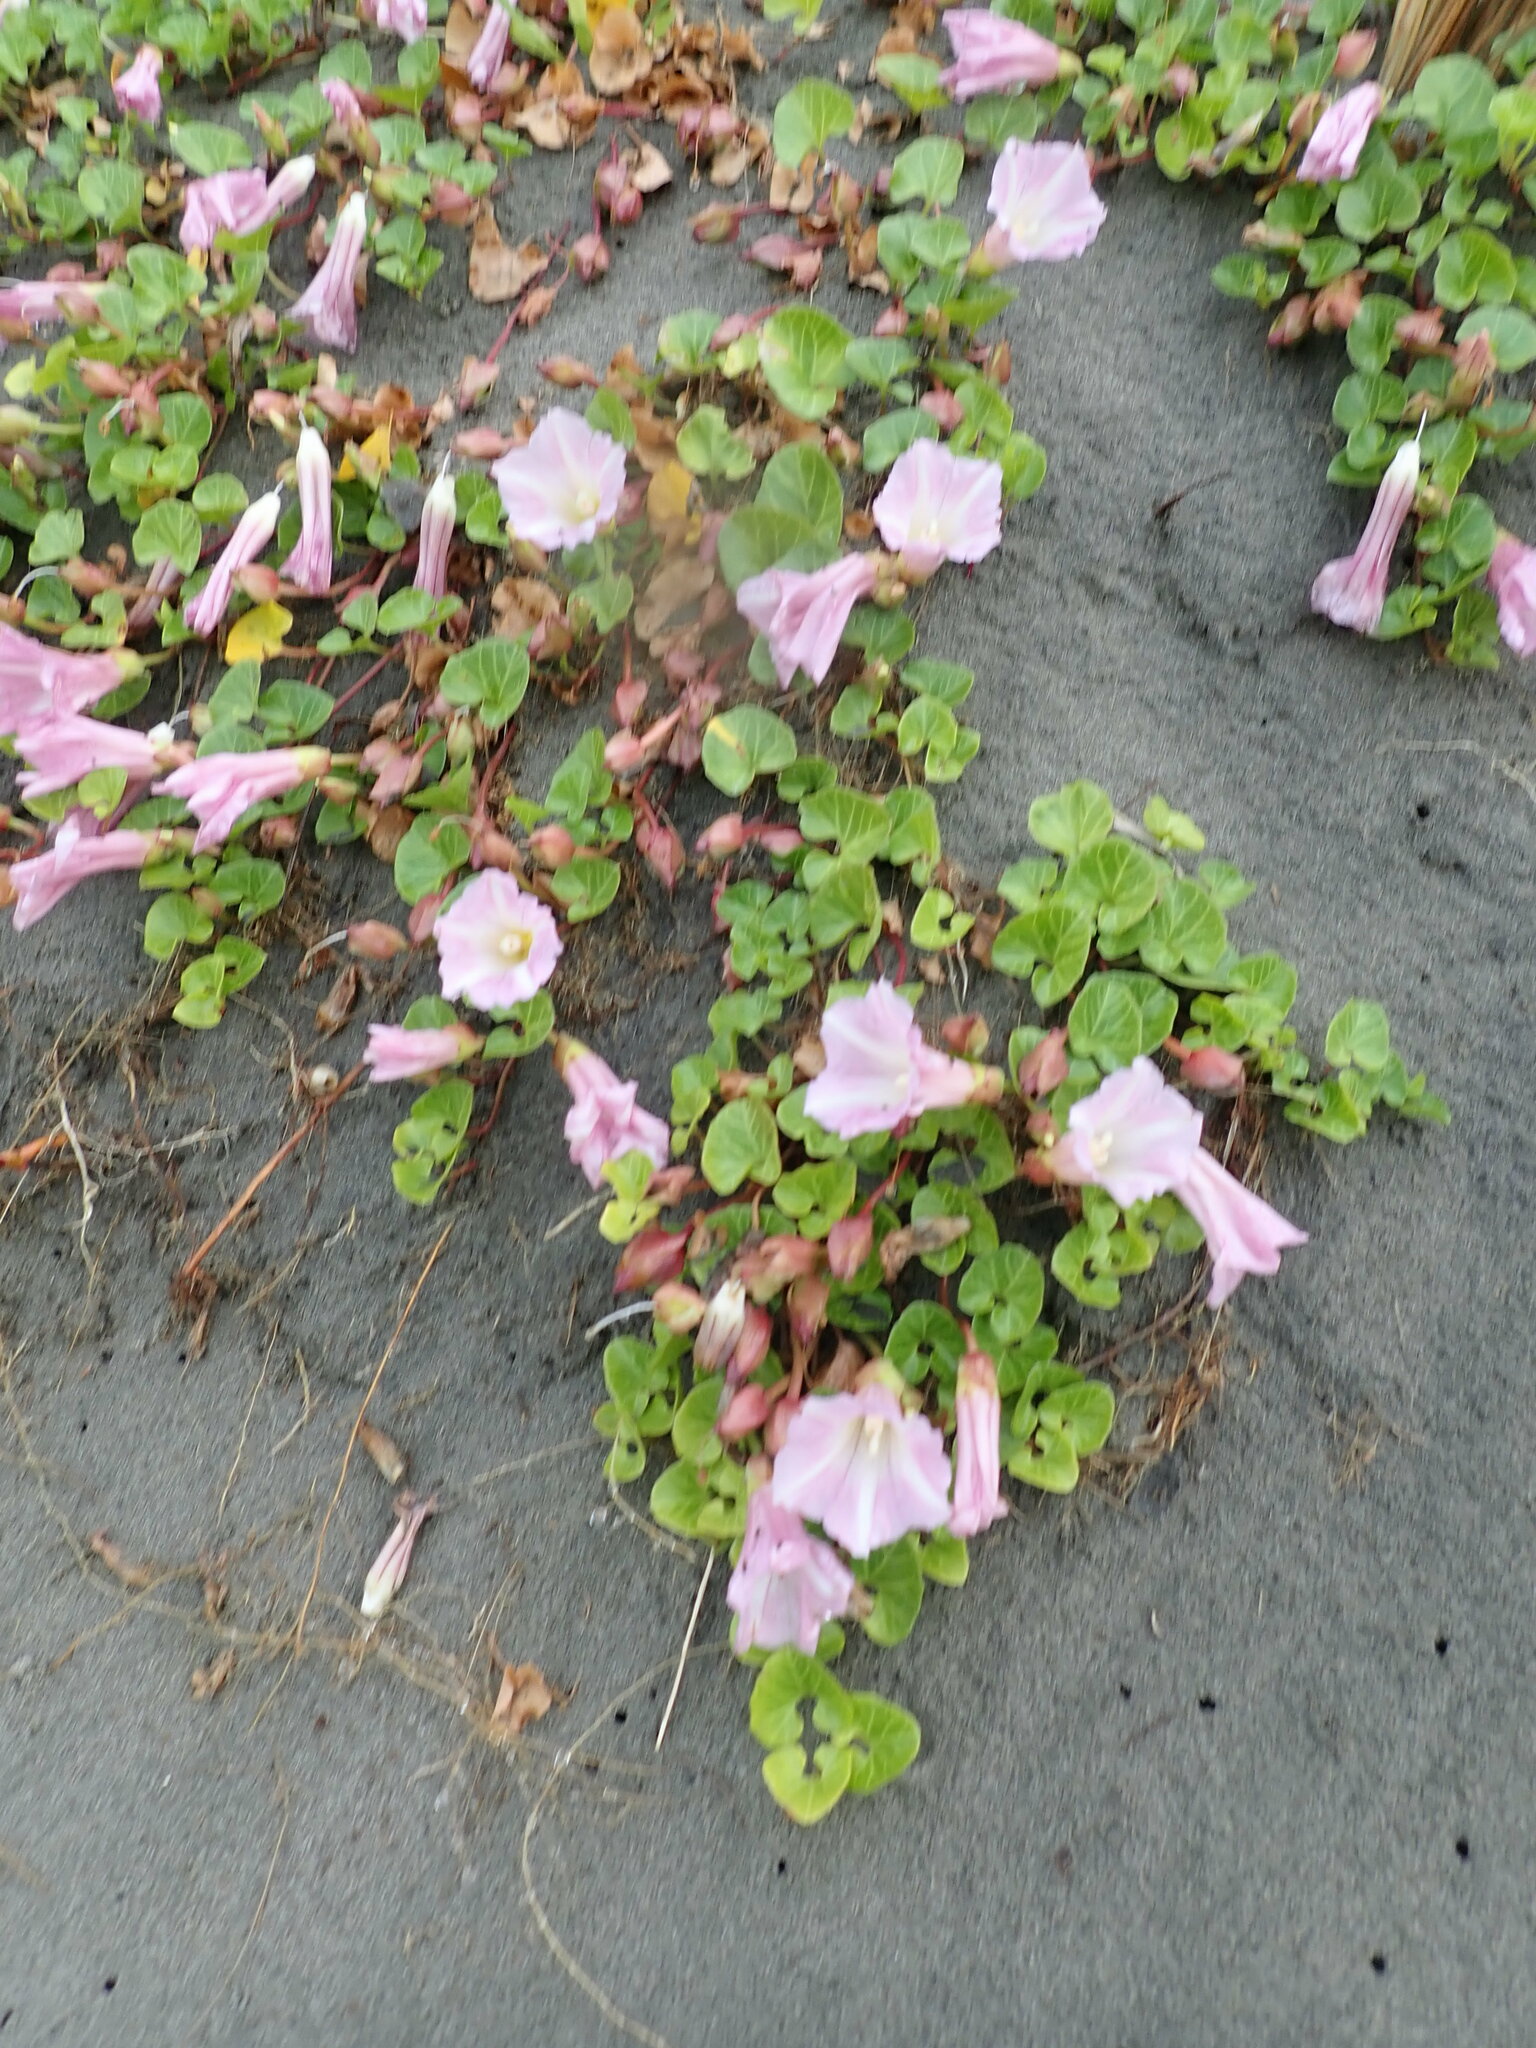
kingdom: Plantae
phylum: Tracheophyta
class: Magnoliopsida
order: Solanales
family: Convolvulaceae
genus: Calystegia
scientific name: Calystegia soldanella
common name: Sea bindweed
